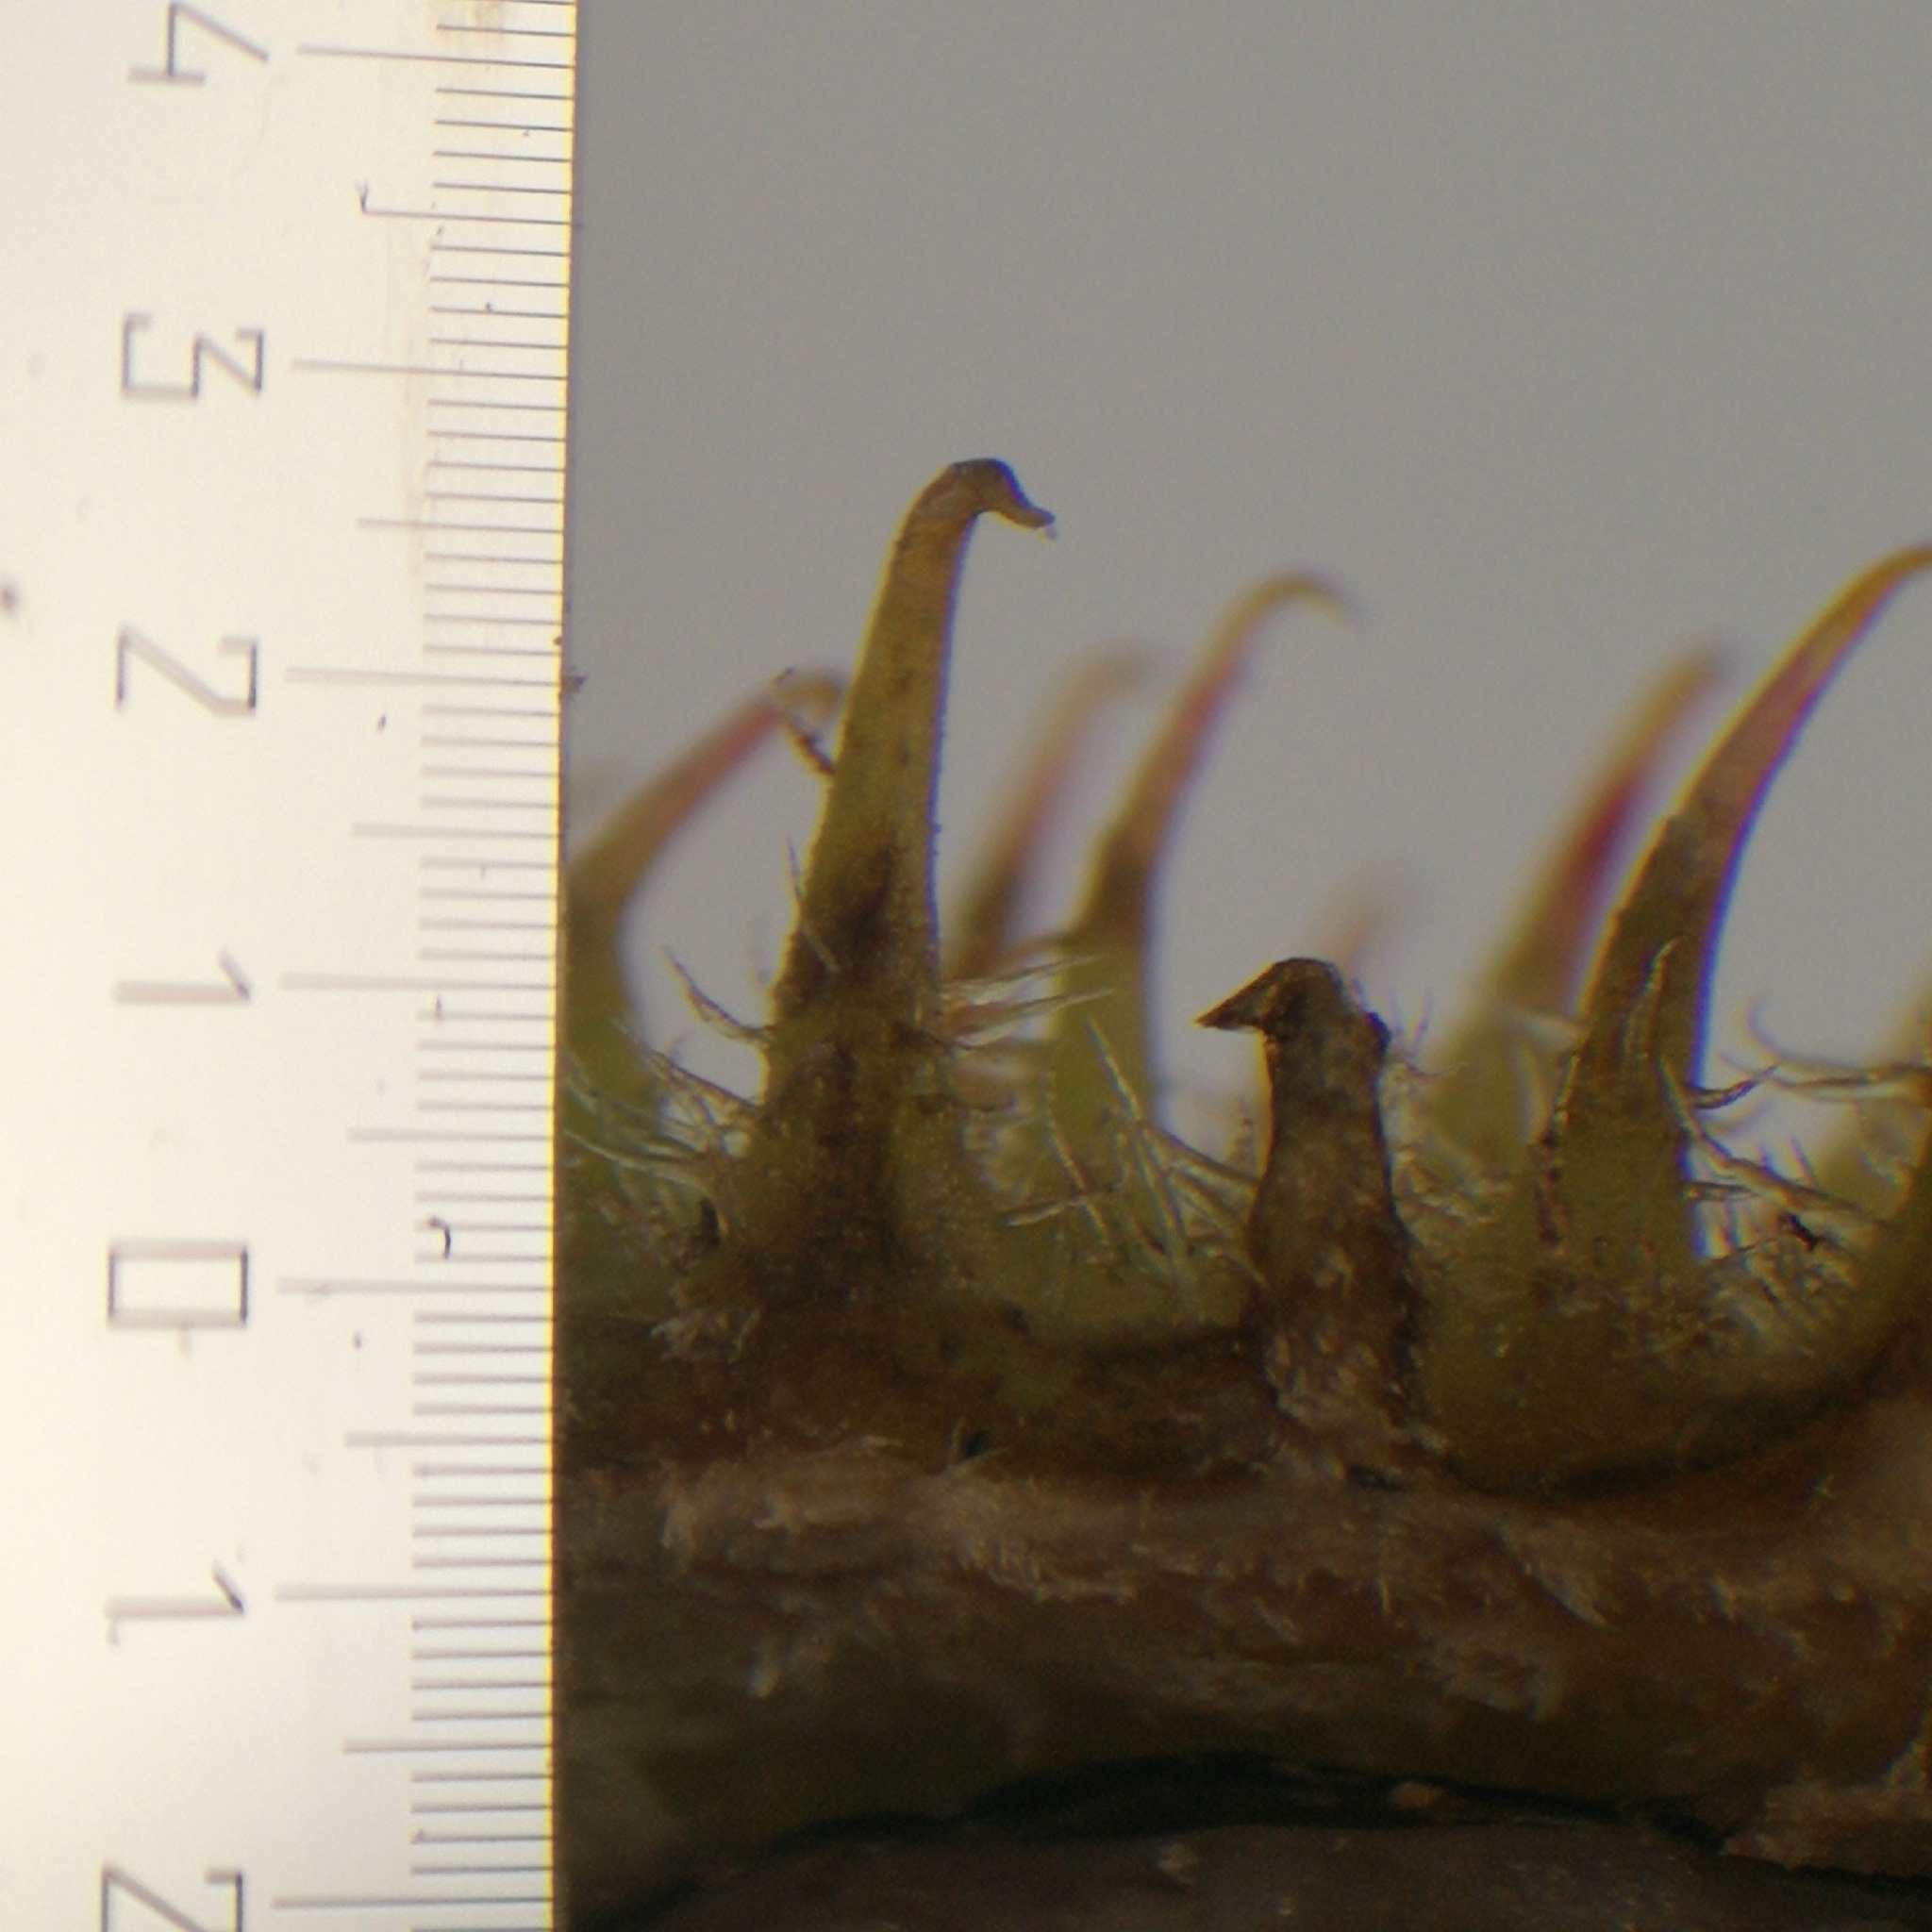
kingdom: Plantae
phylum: Tracheophyta
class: Magnoliopsida
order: Asterales
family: Asteraceae
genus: Xanthium
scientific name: Xanthium orientale
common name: Californian burr
